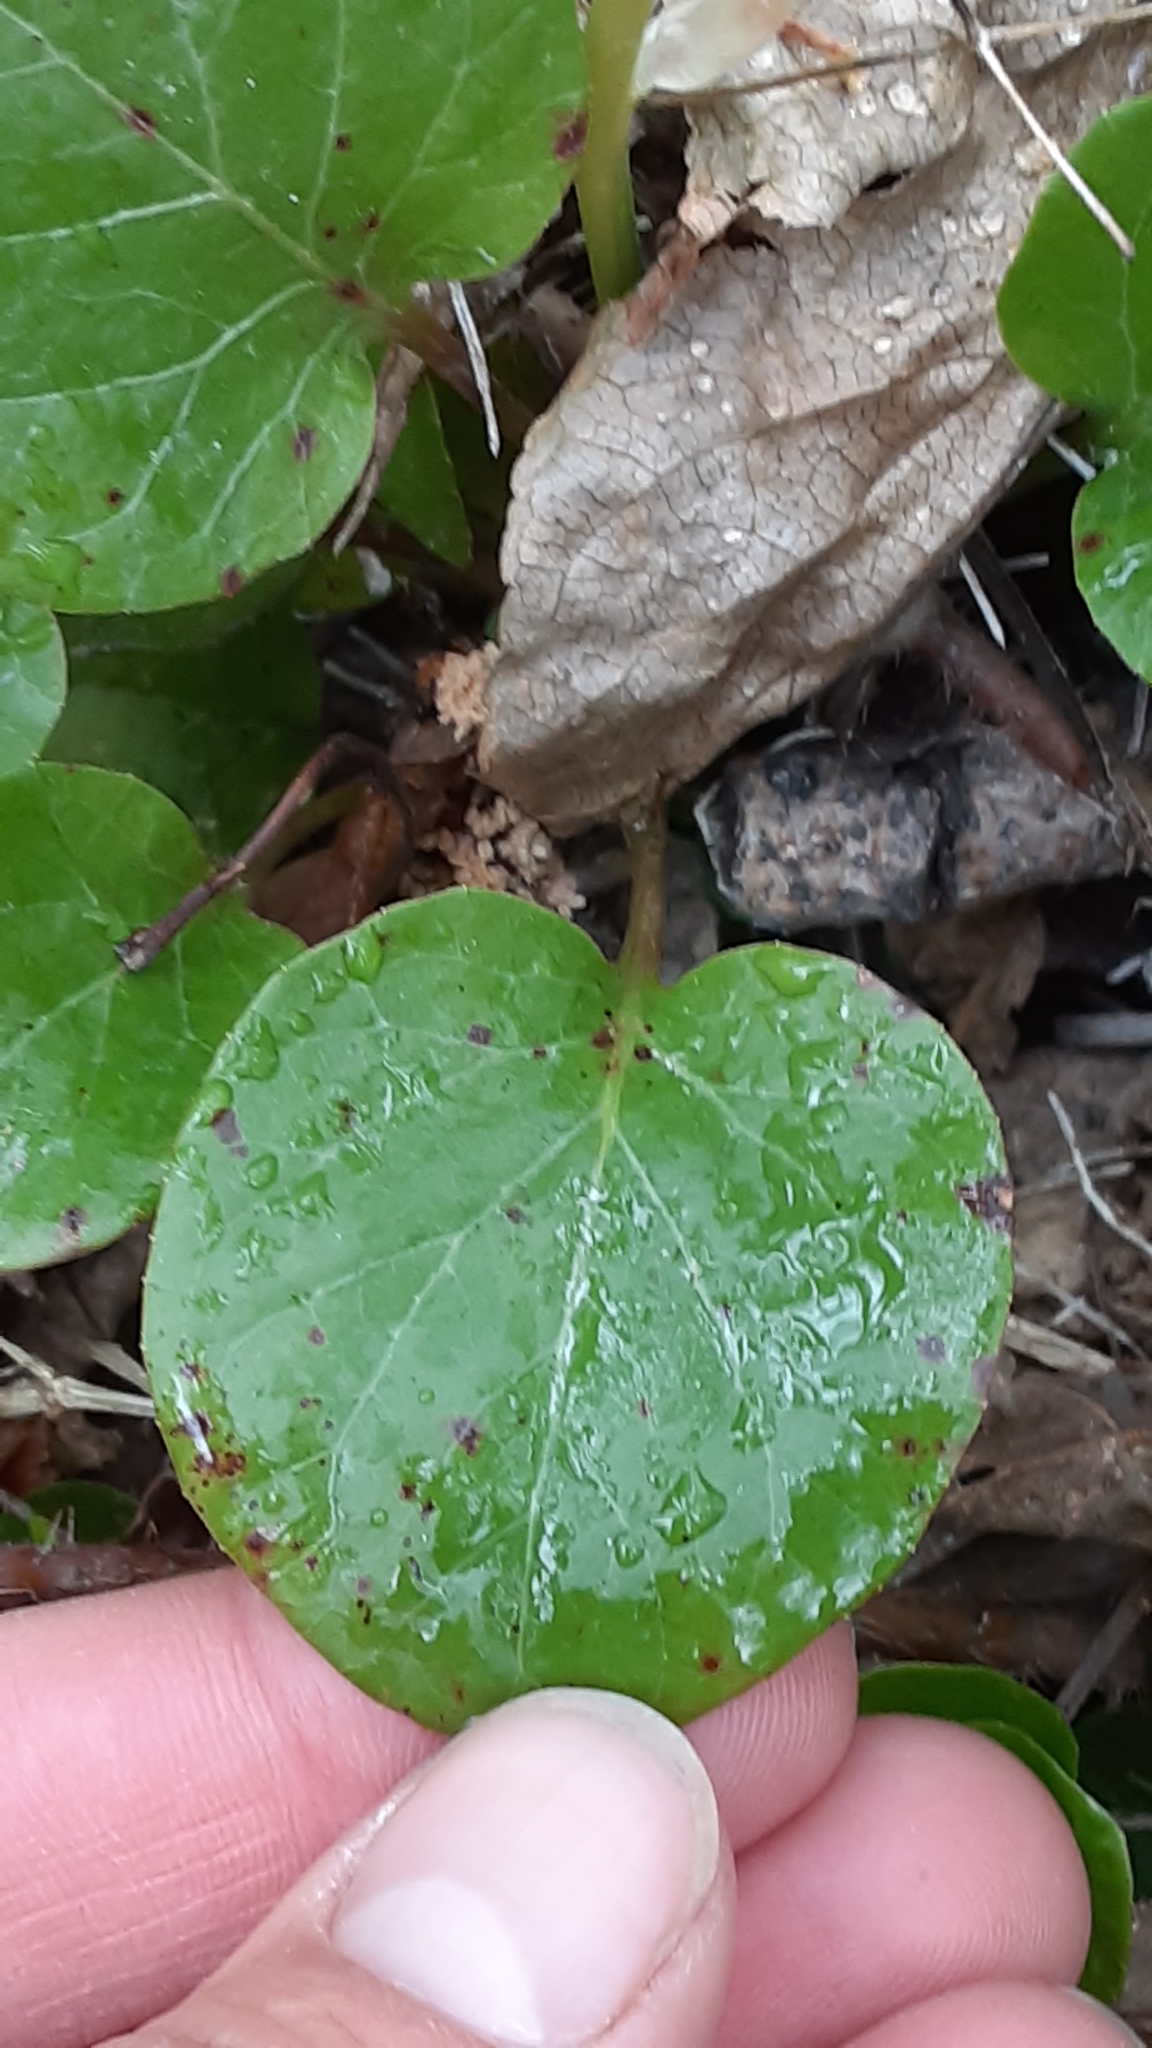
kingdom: Plantae
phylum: Tracheophyta
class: Magnoliopsida
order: Ericales
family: Ericaceae
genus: Pyrola
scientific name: Pyrola grandiflora
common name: Arctic pyrola
